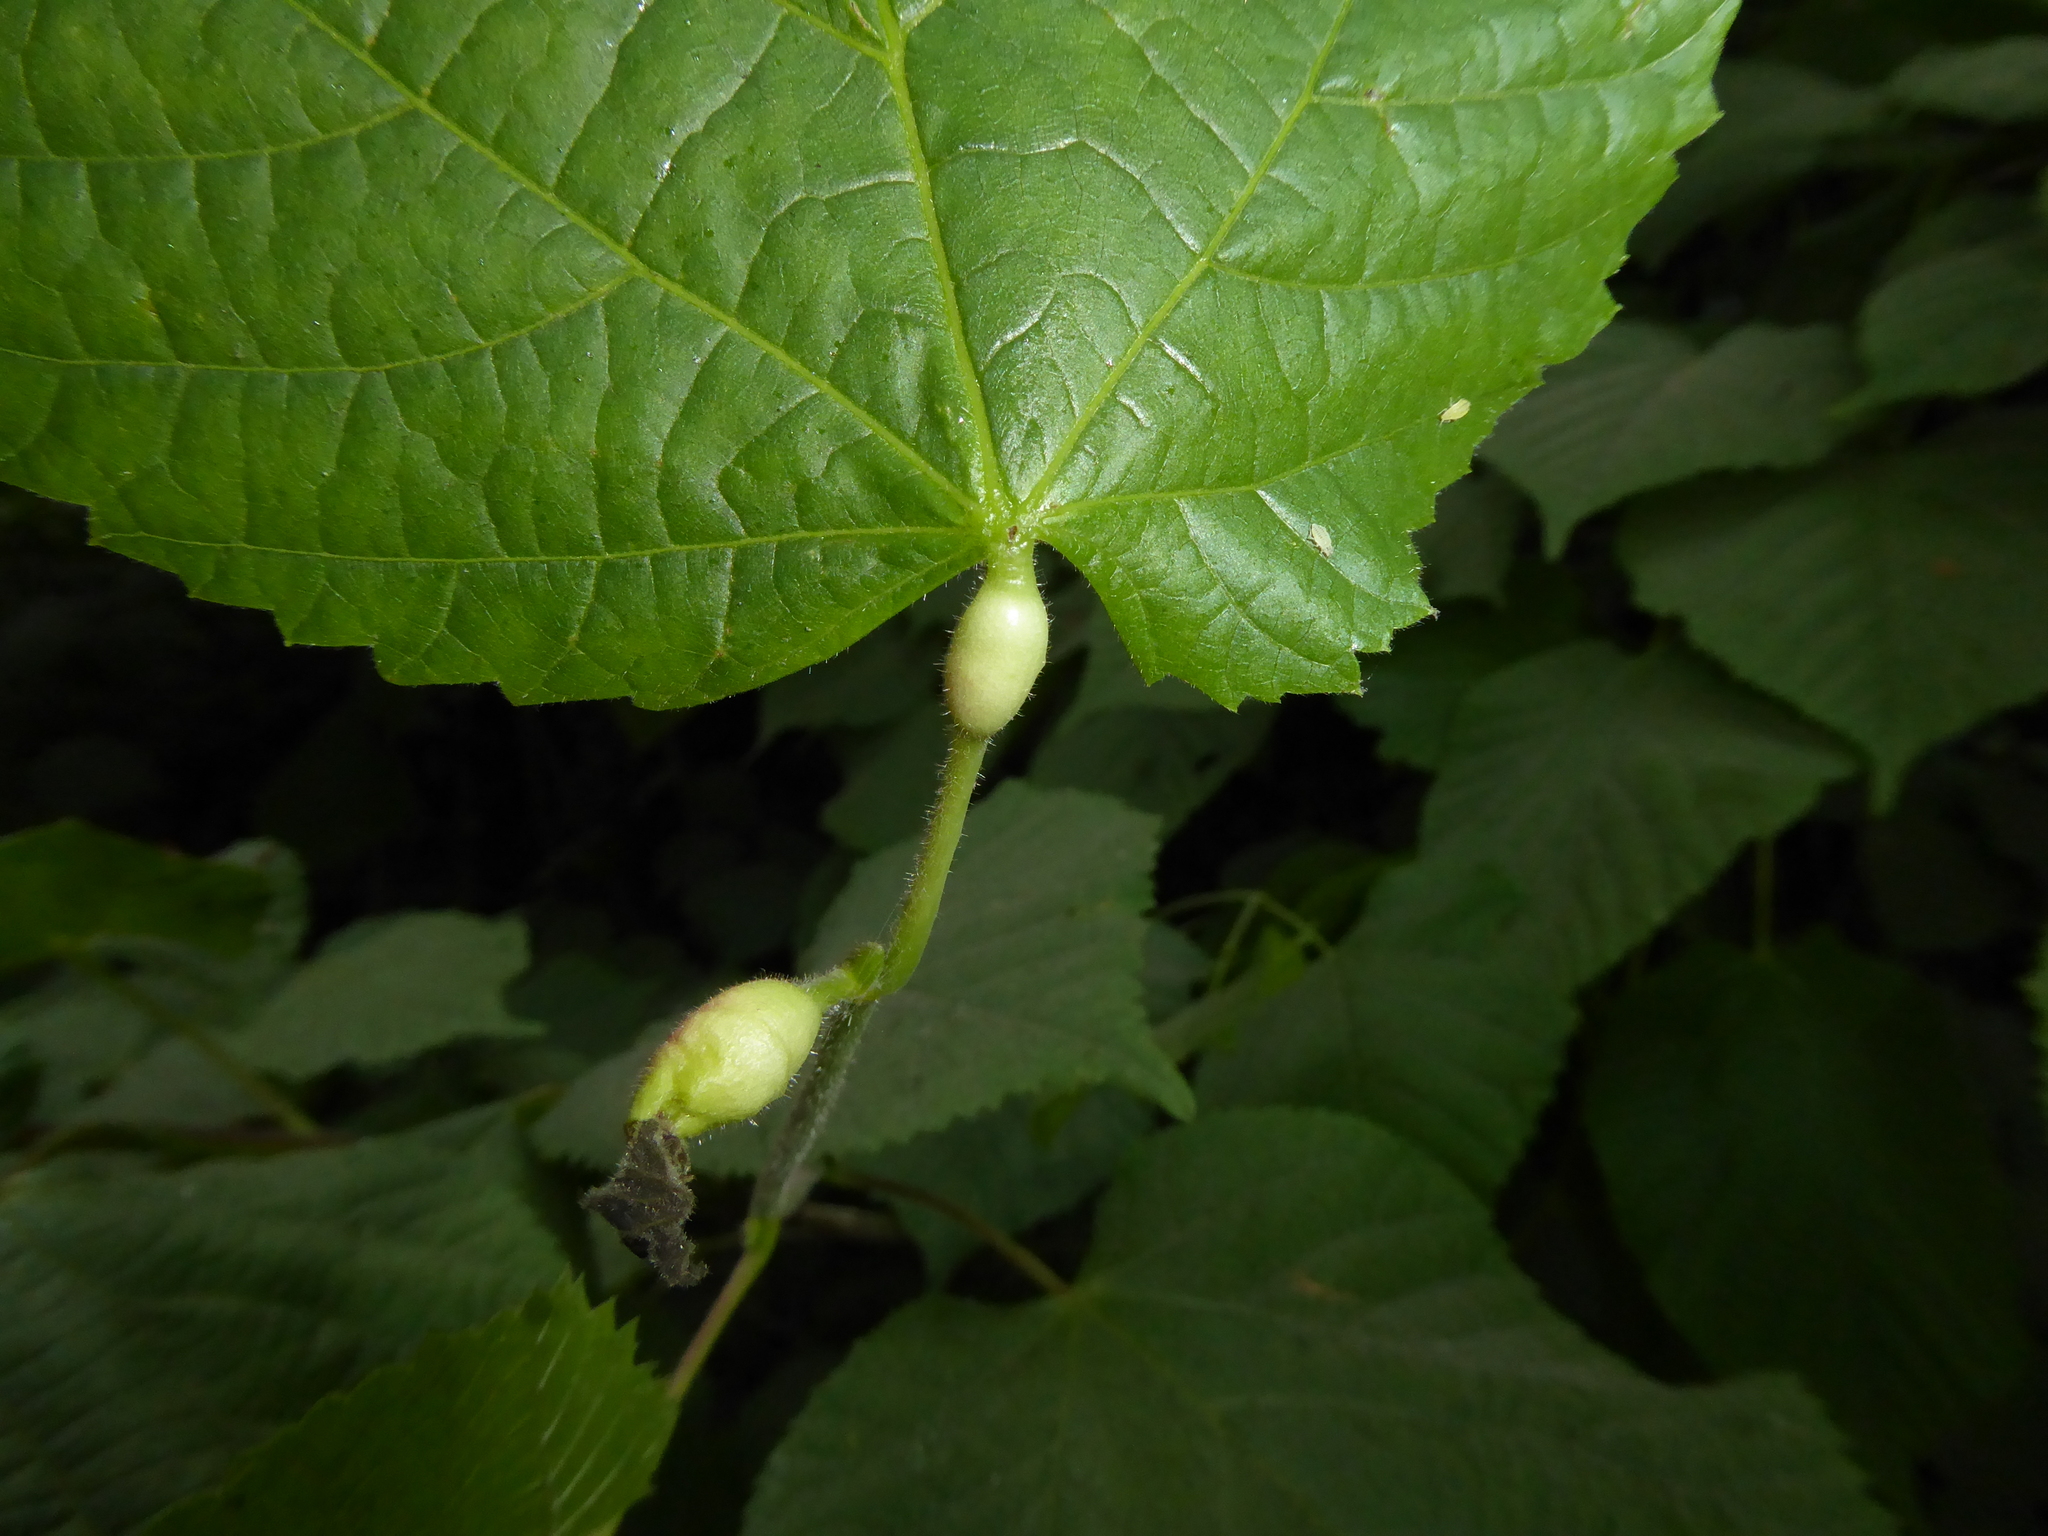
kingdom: Animalia
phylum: Arthropoda
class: Insecta
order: Diptera
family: Cecidomyiidae
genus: Contarinia
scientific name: Contarinia tiliarum
